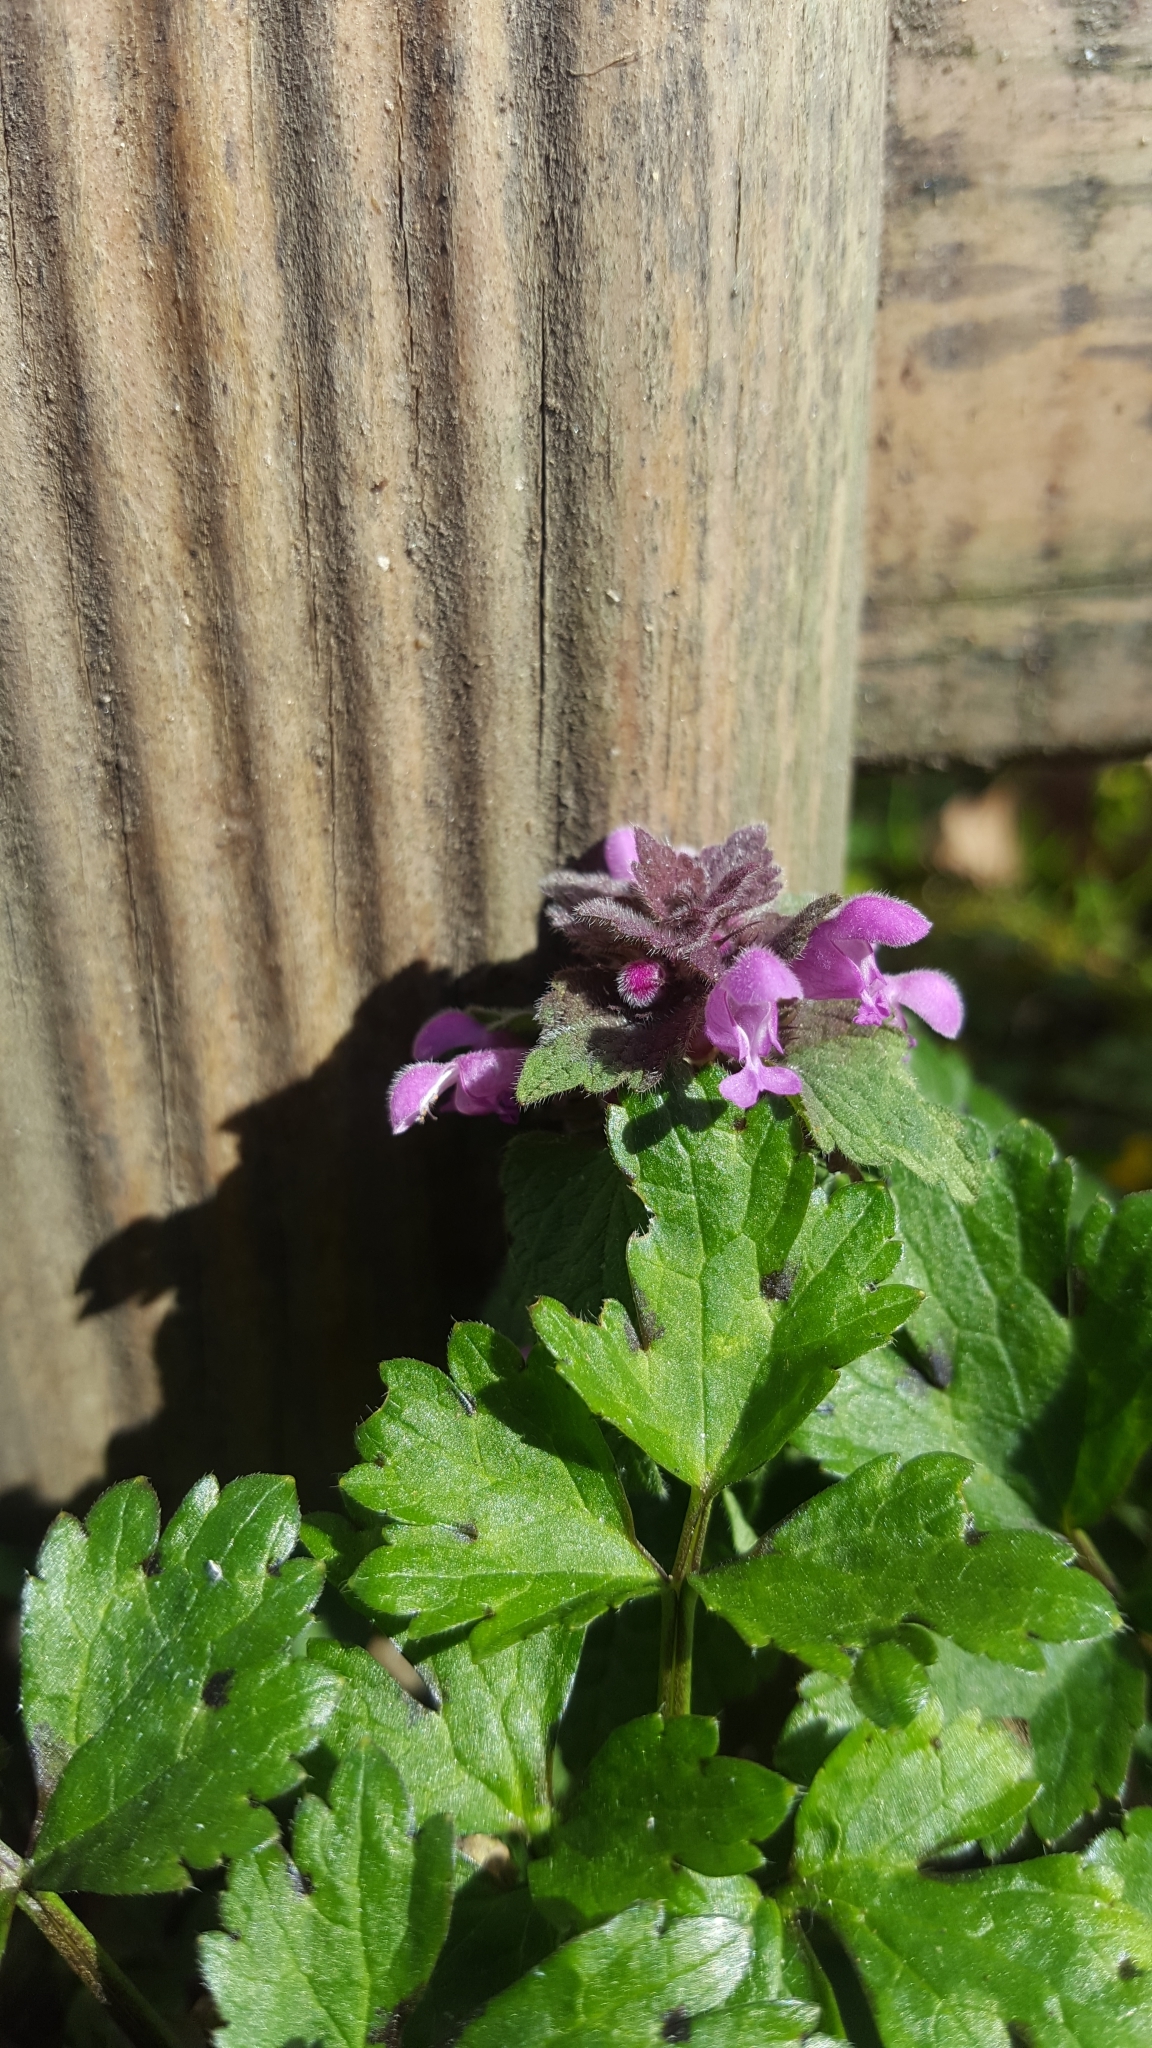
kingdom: Plantae
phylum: Tracheophyta
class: Magnoliopsida
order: Lamiales
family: Lamiaceae
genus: Lamium
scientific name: Lamium purpureum
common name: Red dead-nettle
